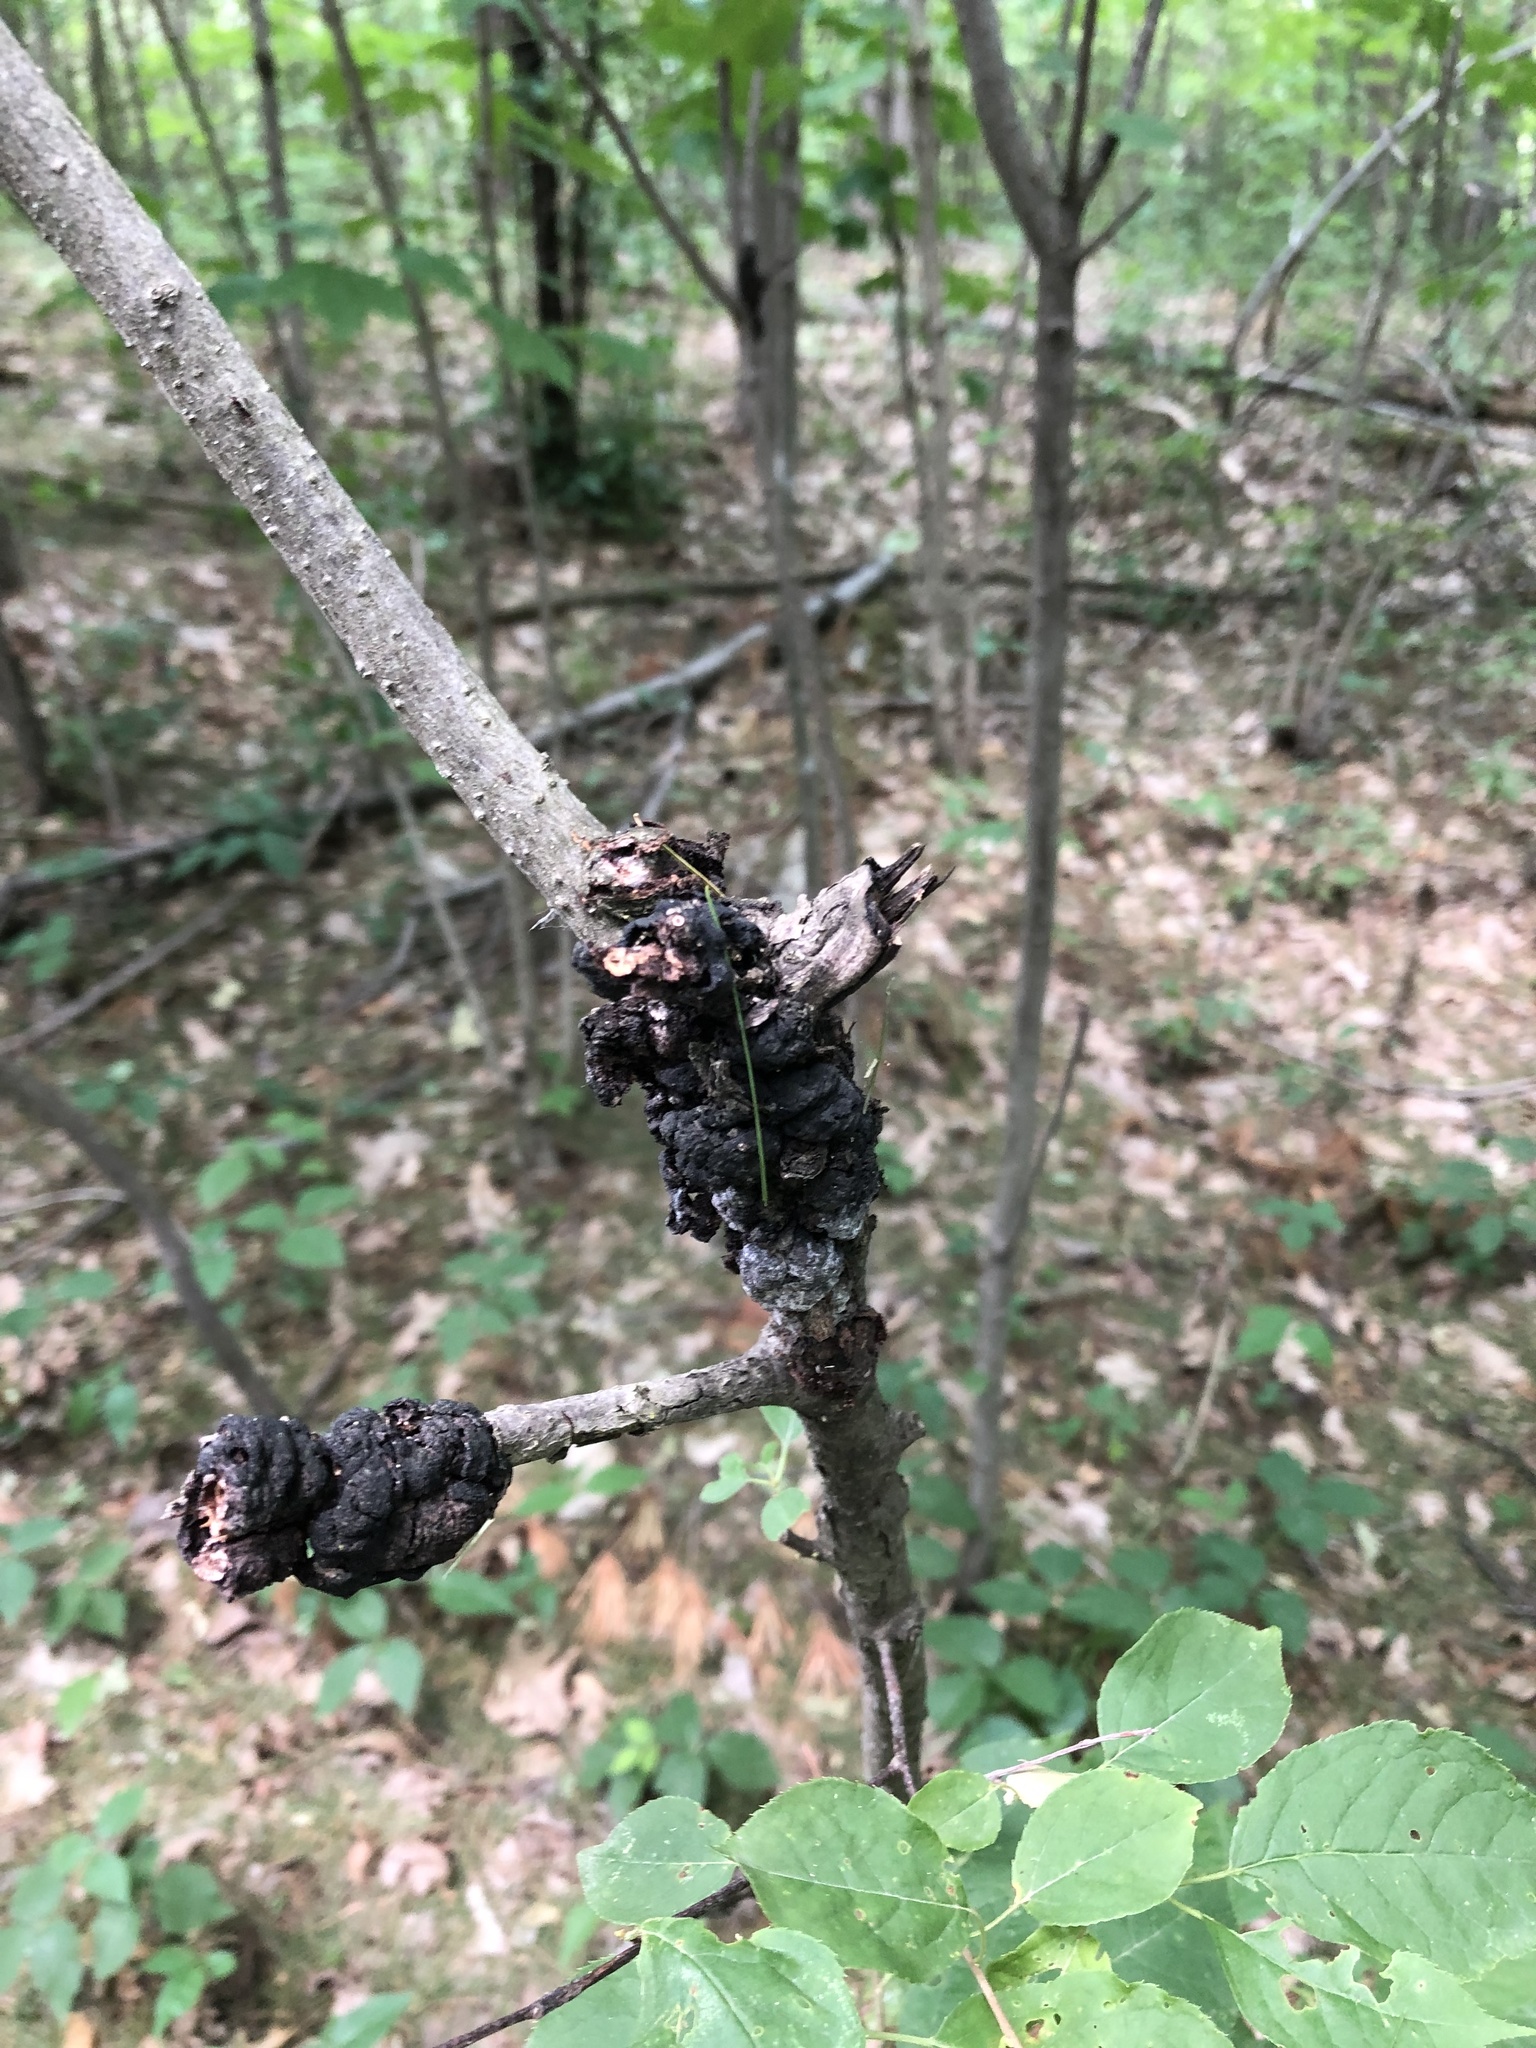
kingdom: Fungi
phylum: Ascomycota
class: Dothideomycetes
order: Venturiales
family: Venturiaceae
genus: Apiosporina
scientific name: Apiosporina morbosa
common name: Black knot
